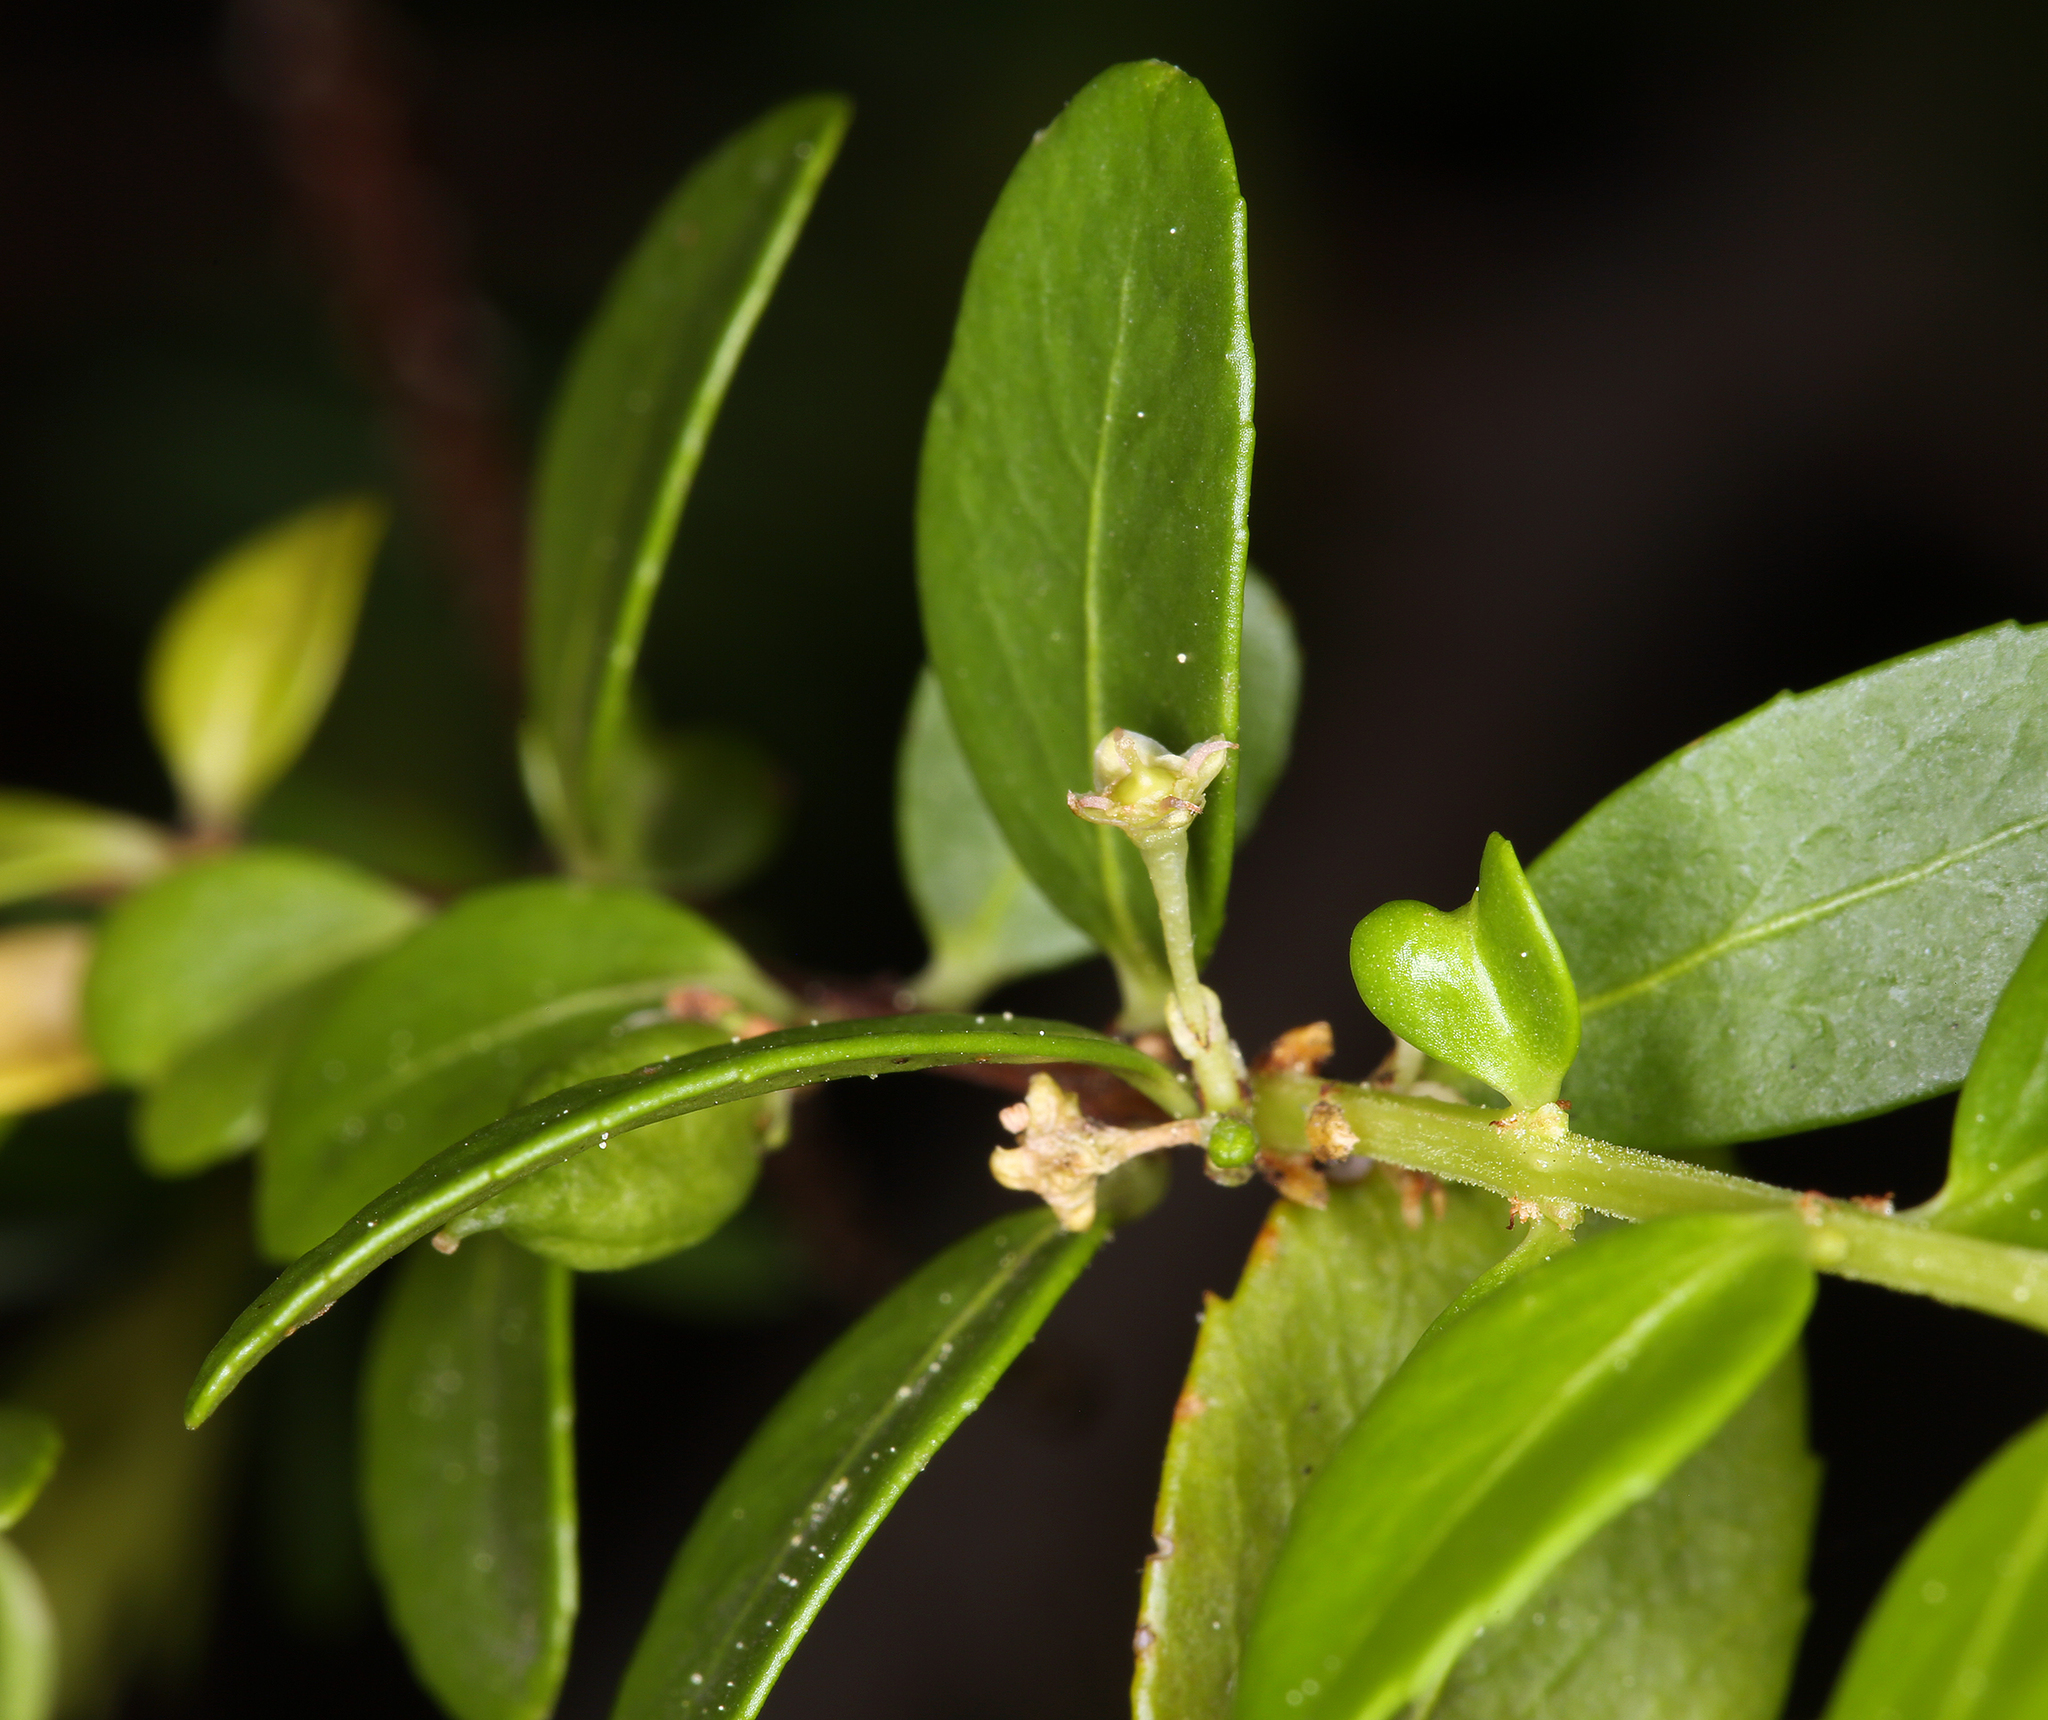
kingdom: Plantae
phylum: Tracheophyta
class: Magnoliopsida
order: Celastrales
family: Celastraceae
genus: Paxistima
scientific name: Paxistima myrsinites
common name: Mountain-lover
